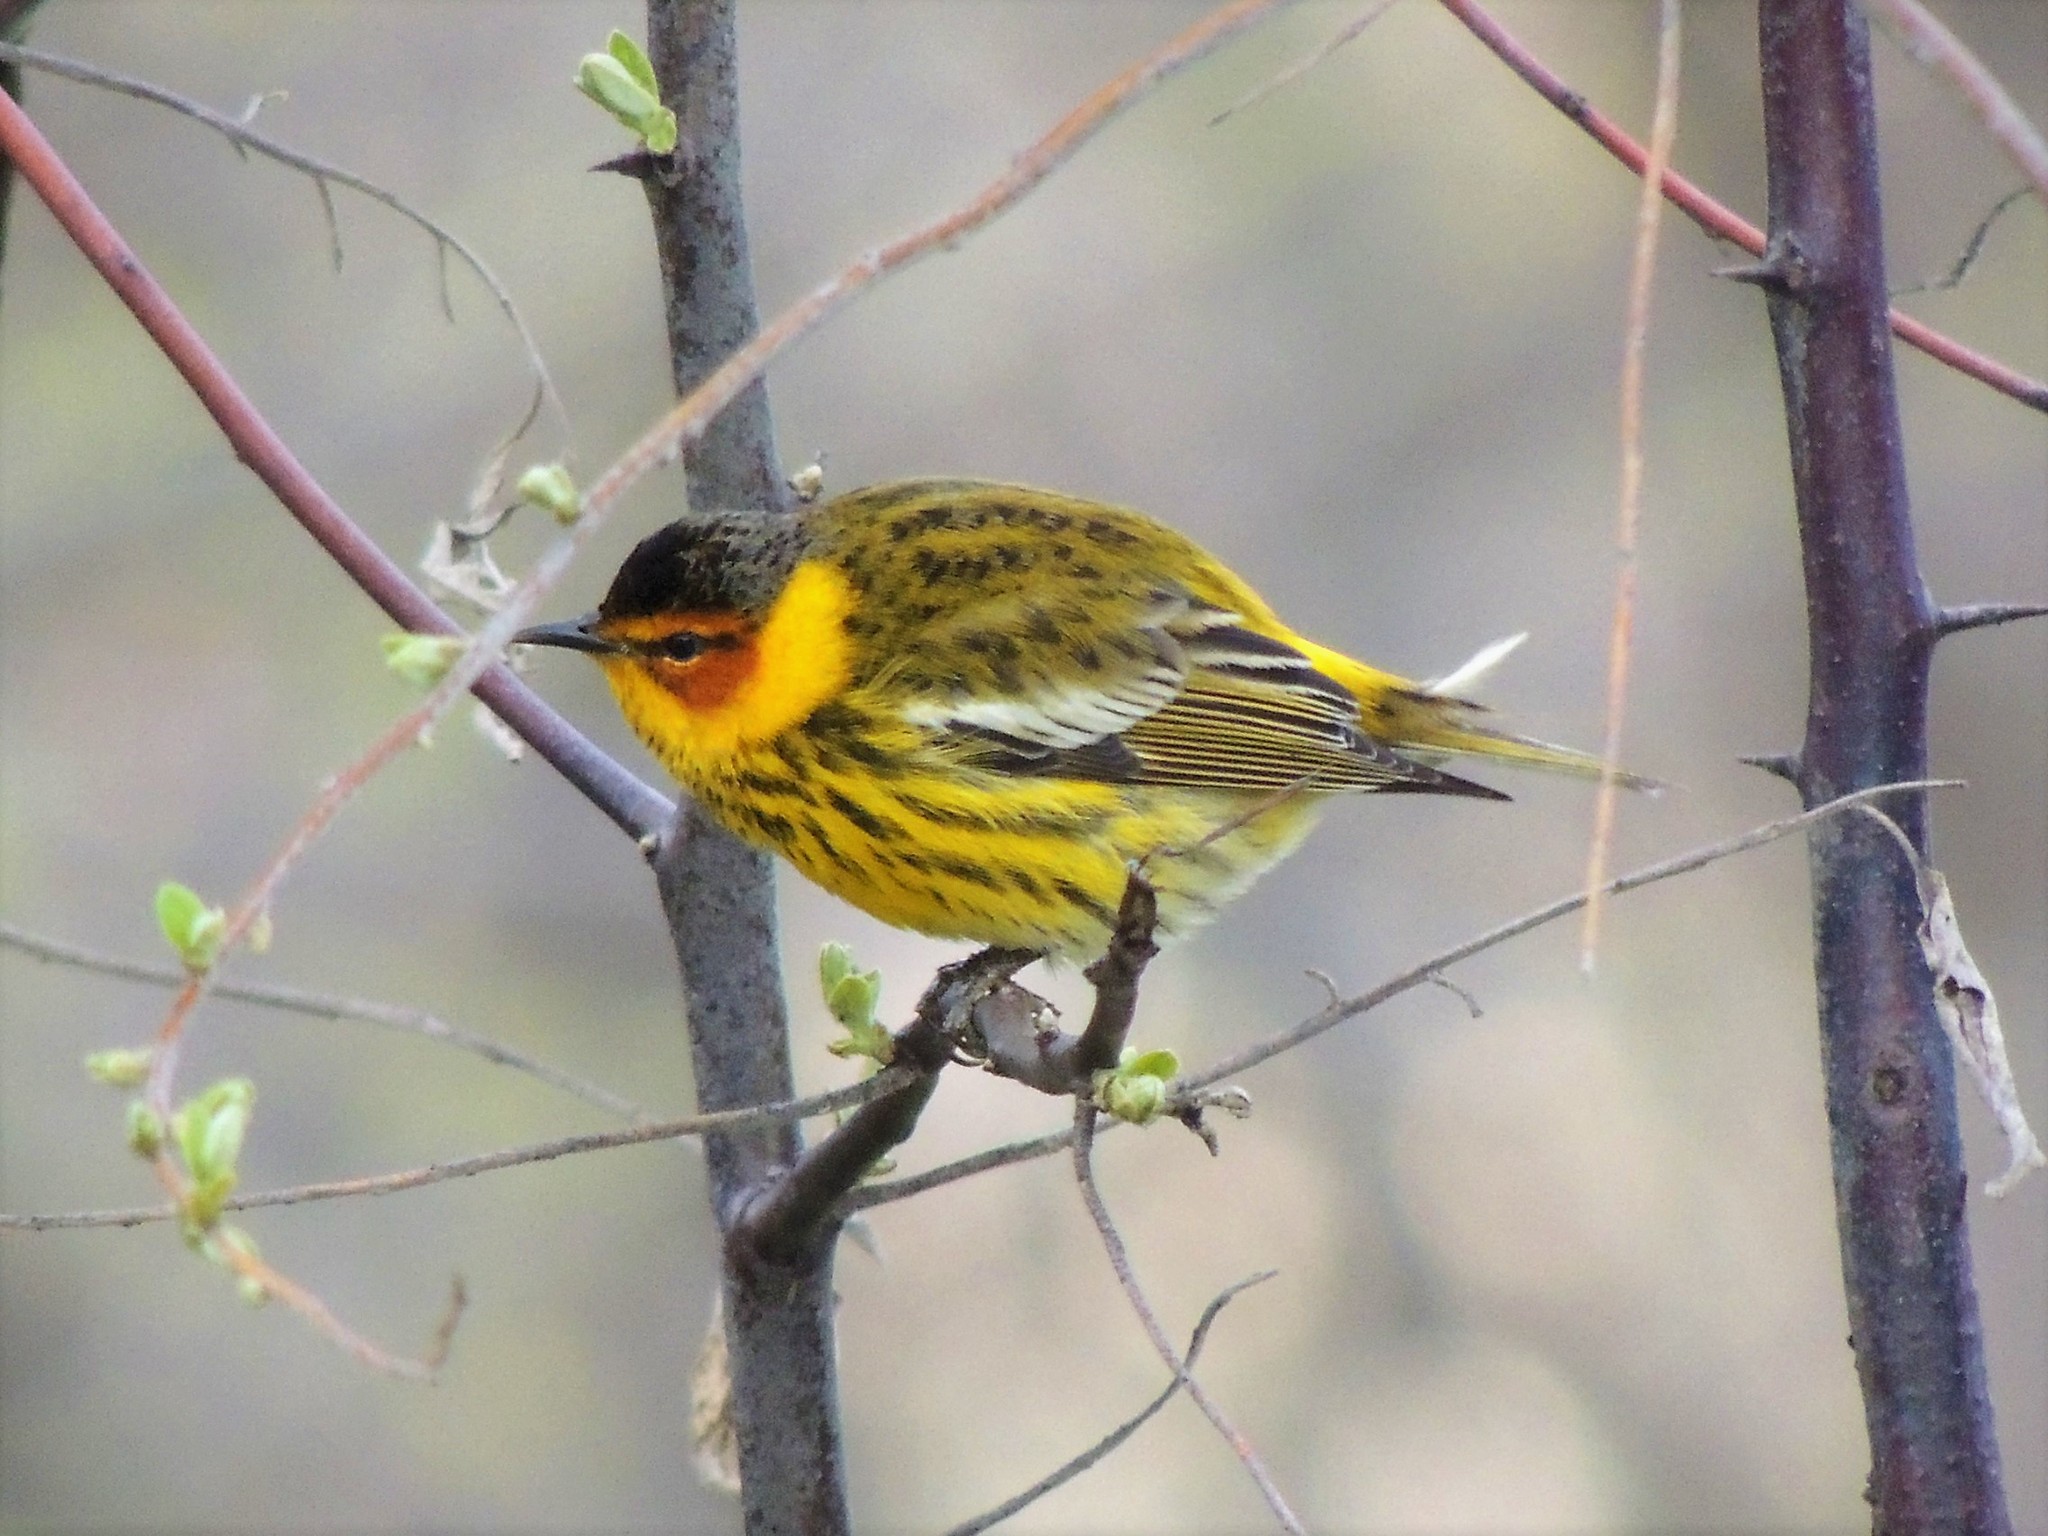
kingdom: Animalia
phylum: Chordata
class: Aves
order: Passeriformes
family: Parulidae
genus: Setophaga
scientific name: Setophaga tigrina
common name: Cape may warbler
